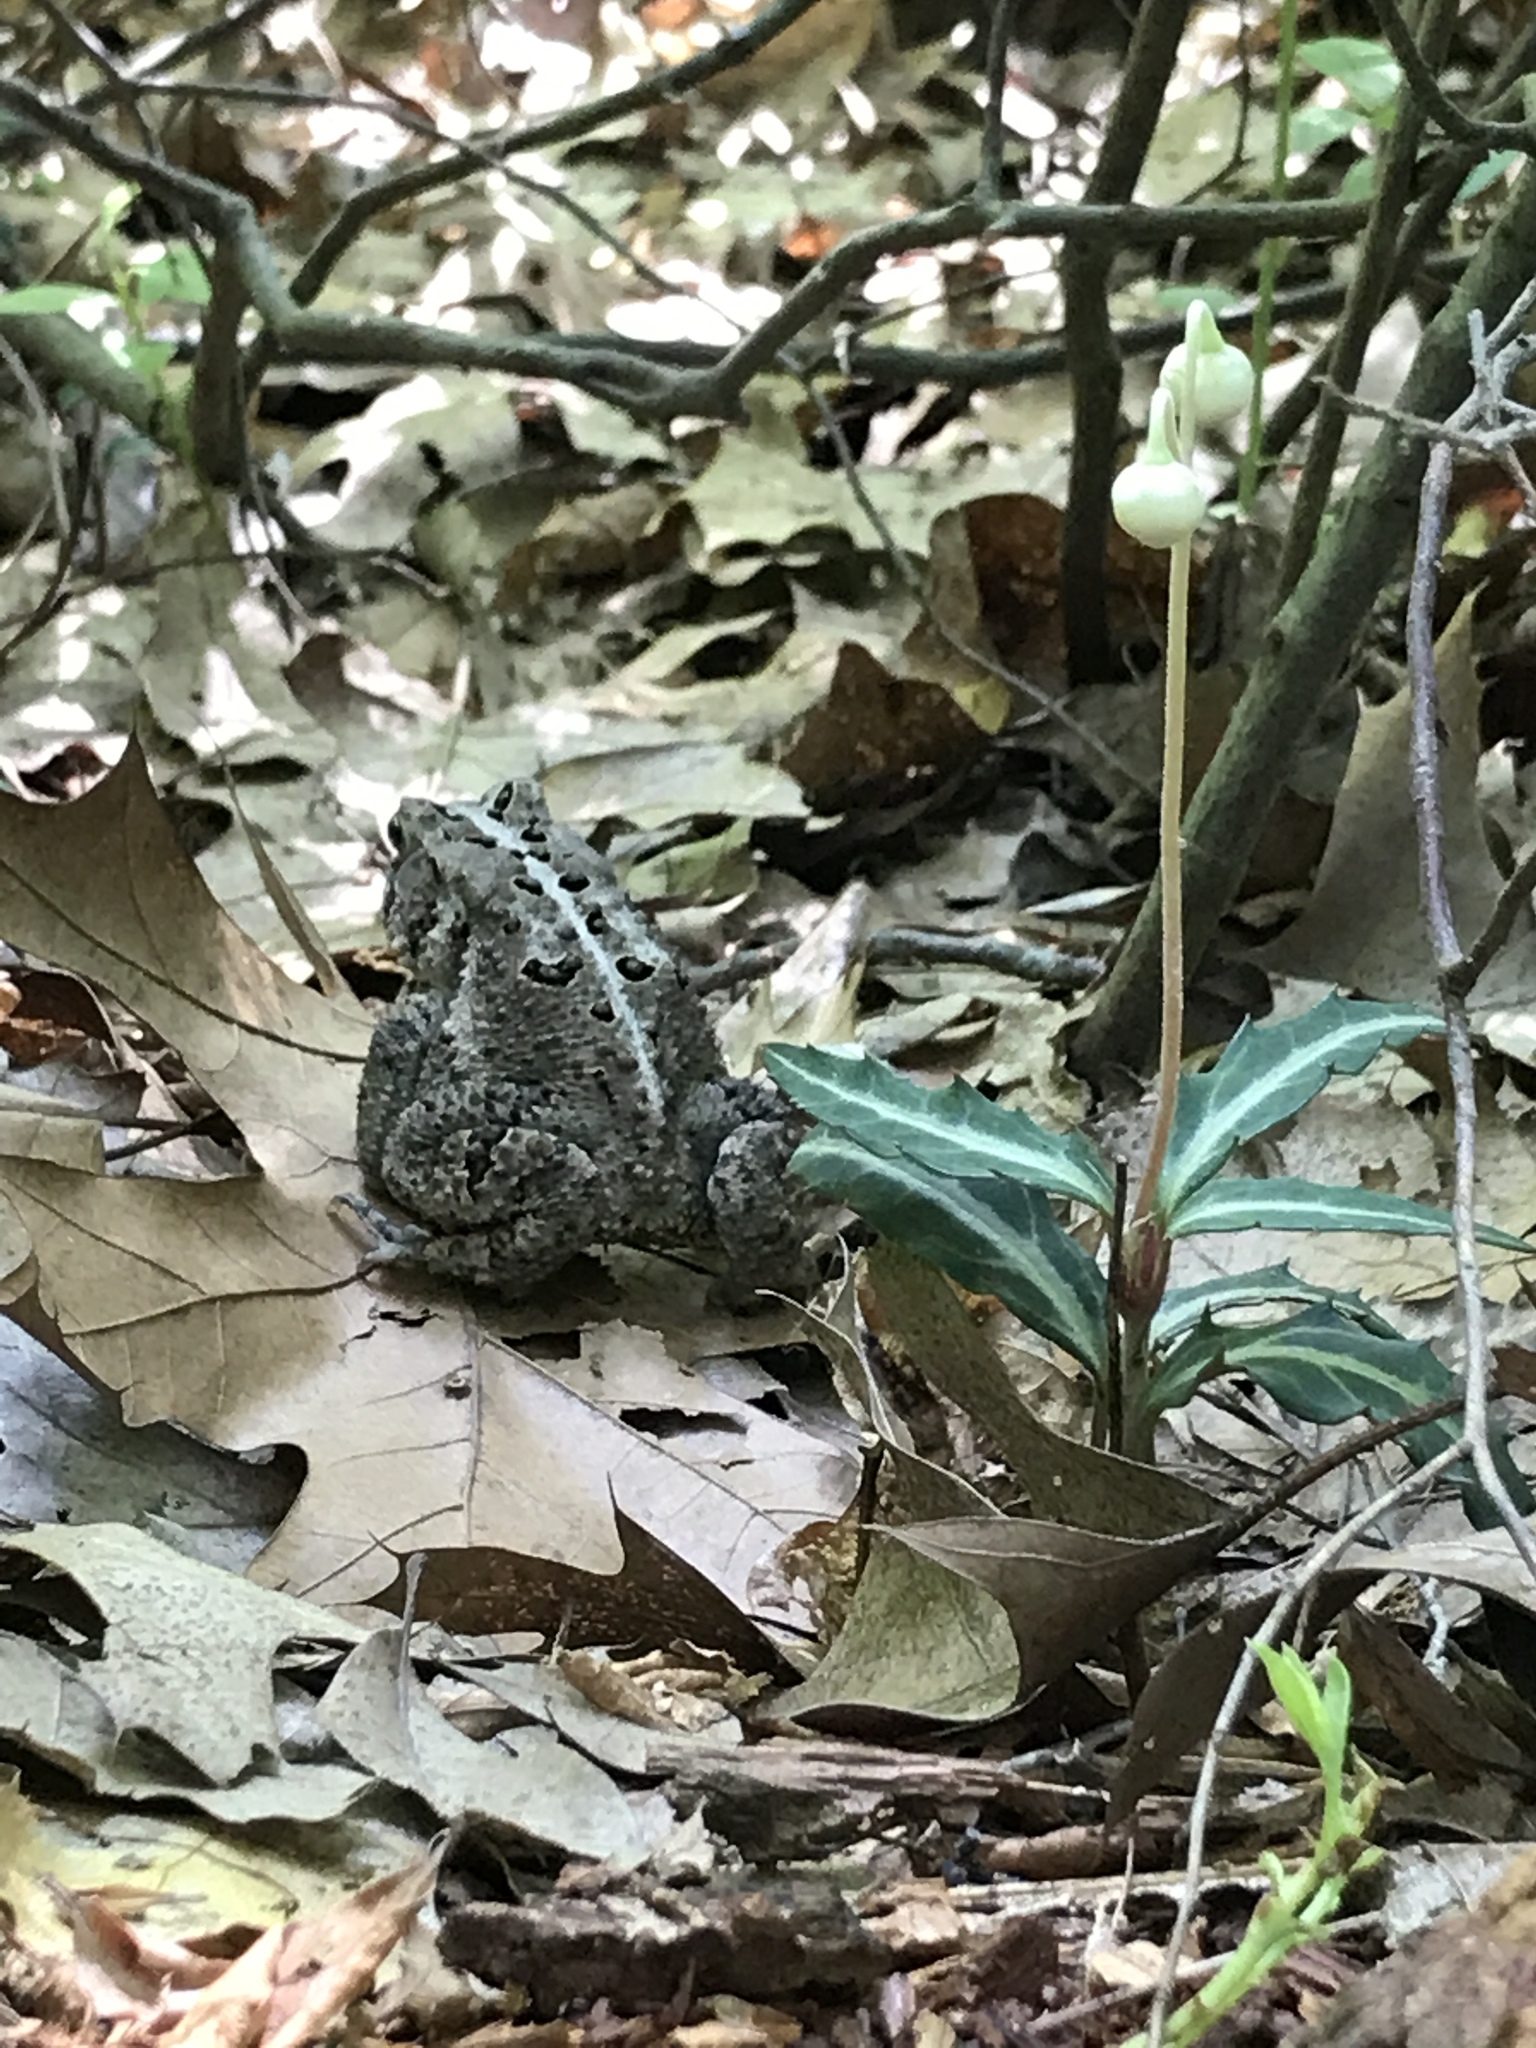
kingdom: Animalia
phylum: Chordata
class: Amphibia
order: Anura
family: Bufonidae
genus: Anaxyrus
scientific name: Anaxyrus americanus
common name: American toad
